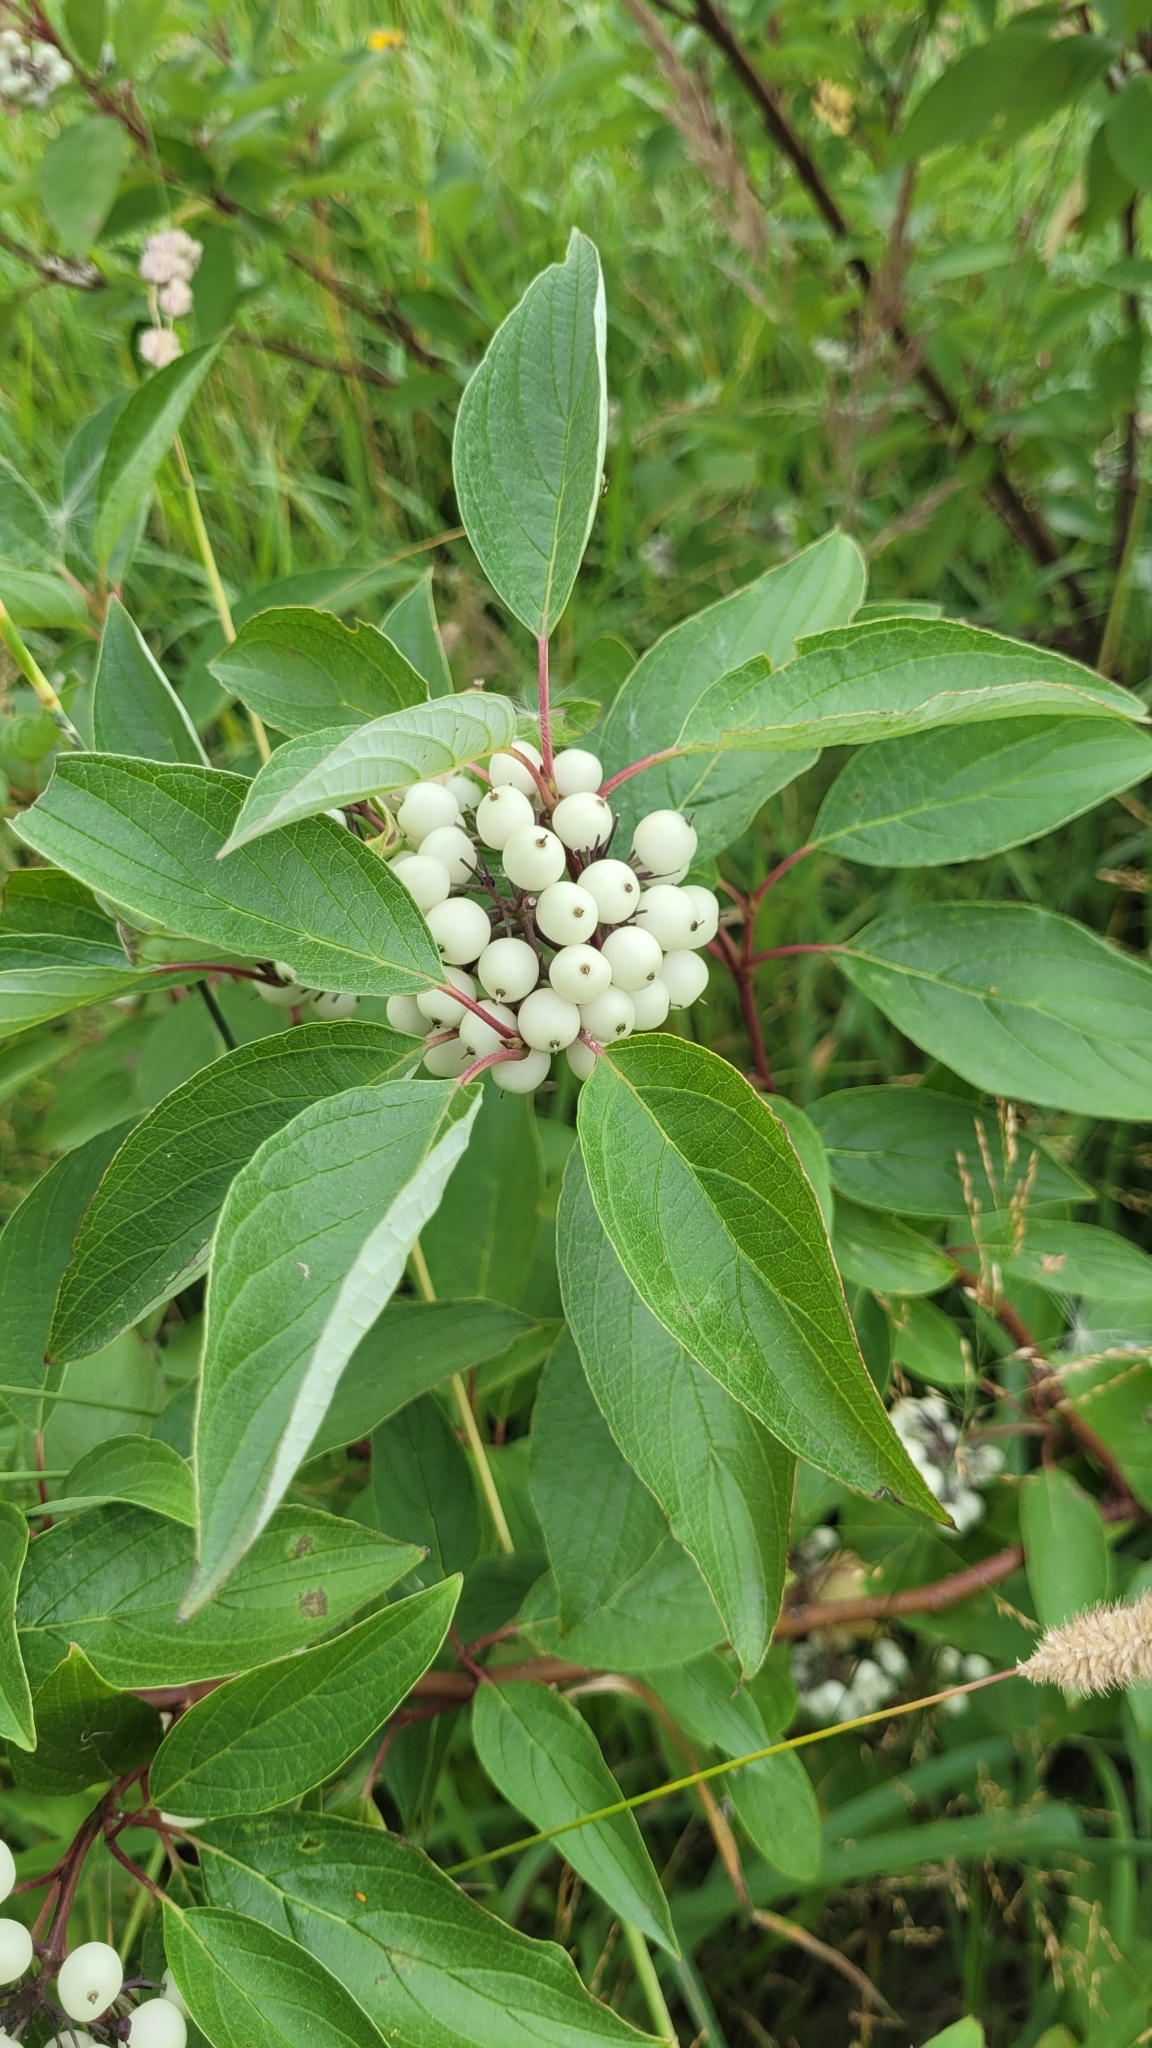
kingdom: Plantae
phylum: Tracheophyta
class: Magnoliopsida
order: Cornales
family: Cornaceae
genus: Cornus
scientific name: Cornus sericea
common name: Red-osier dogwood
